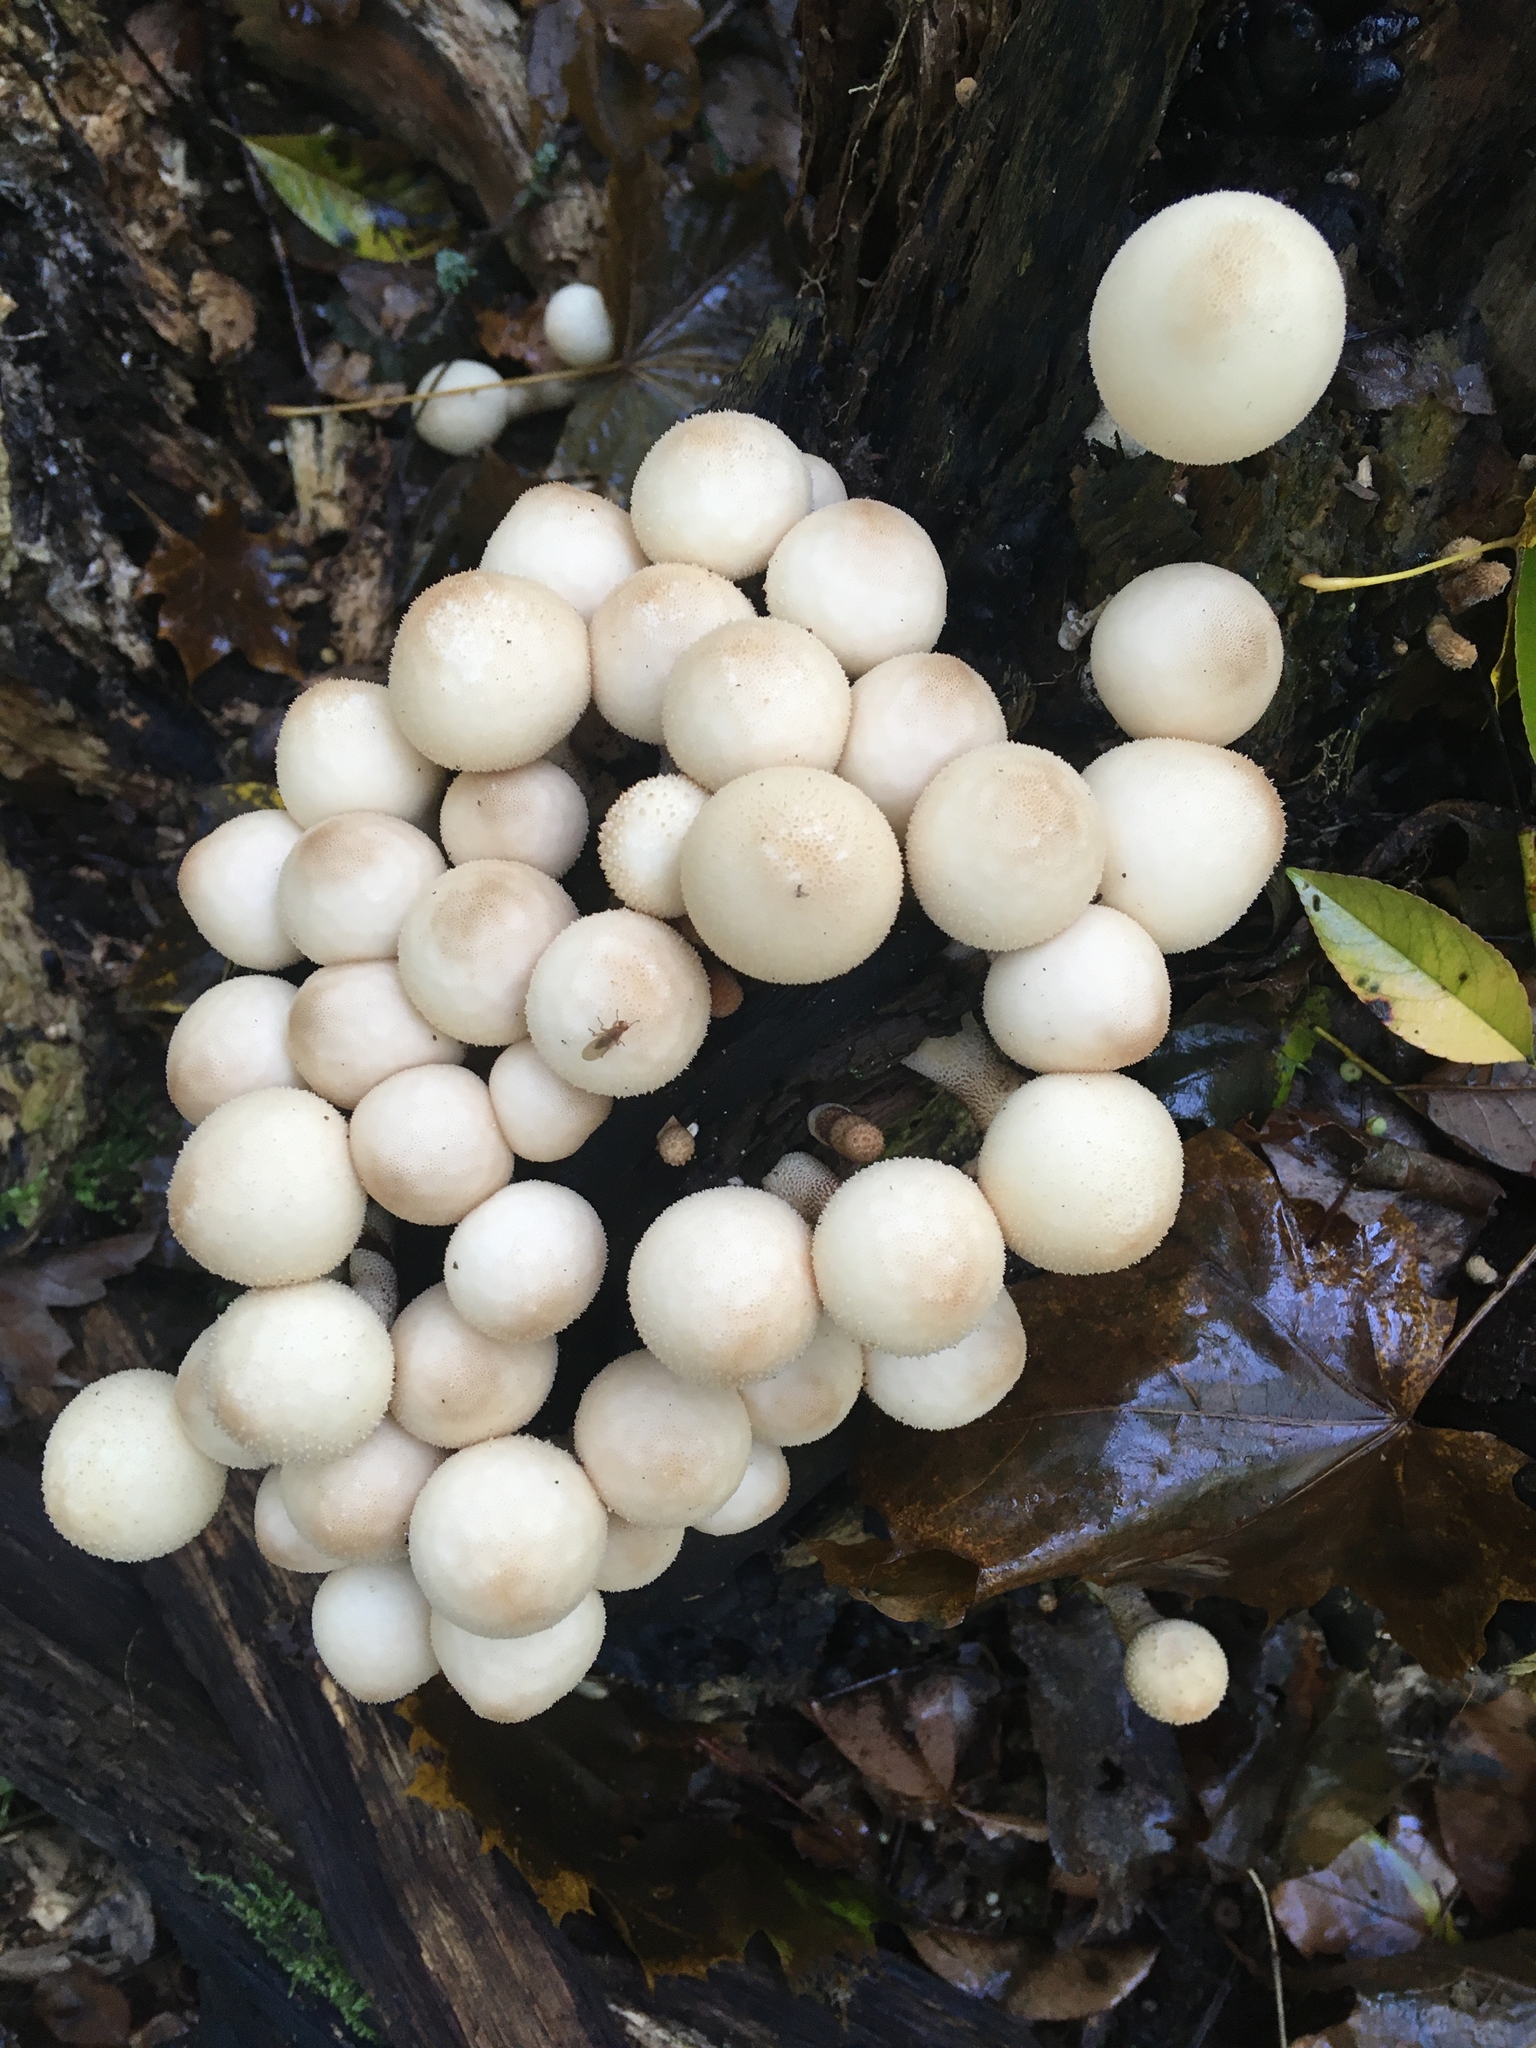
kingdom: Fungi
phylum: Basidiomycota
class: Agaricomycetes
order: Agaricales
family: Lycoperdaceae
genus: Apioperdon
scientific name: Apioperdon pyriforme
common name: Pear-shaped puffball
